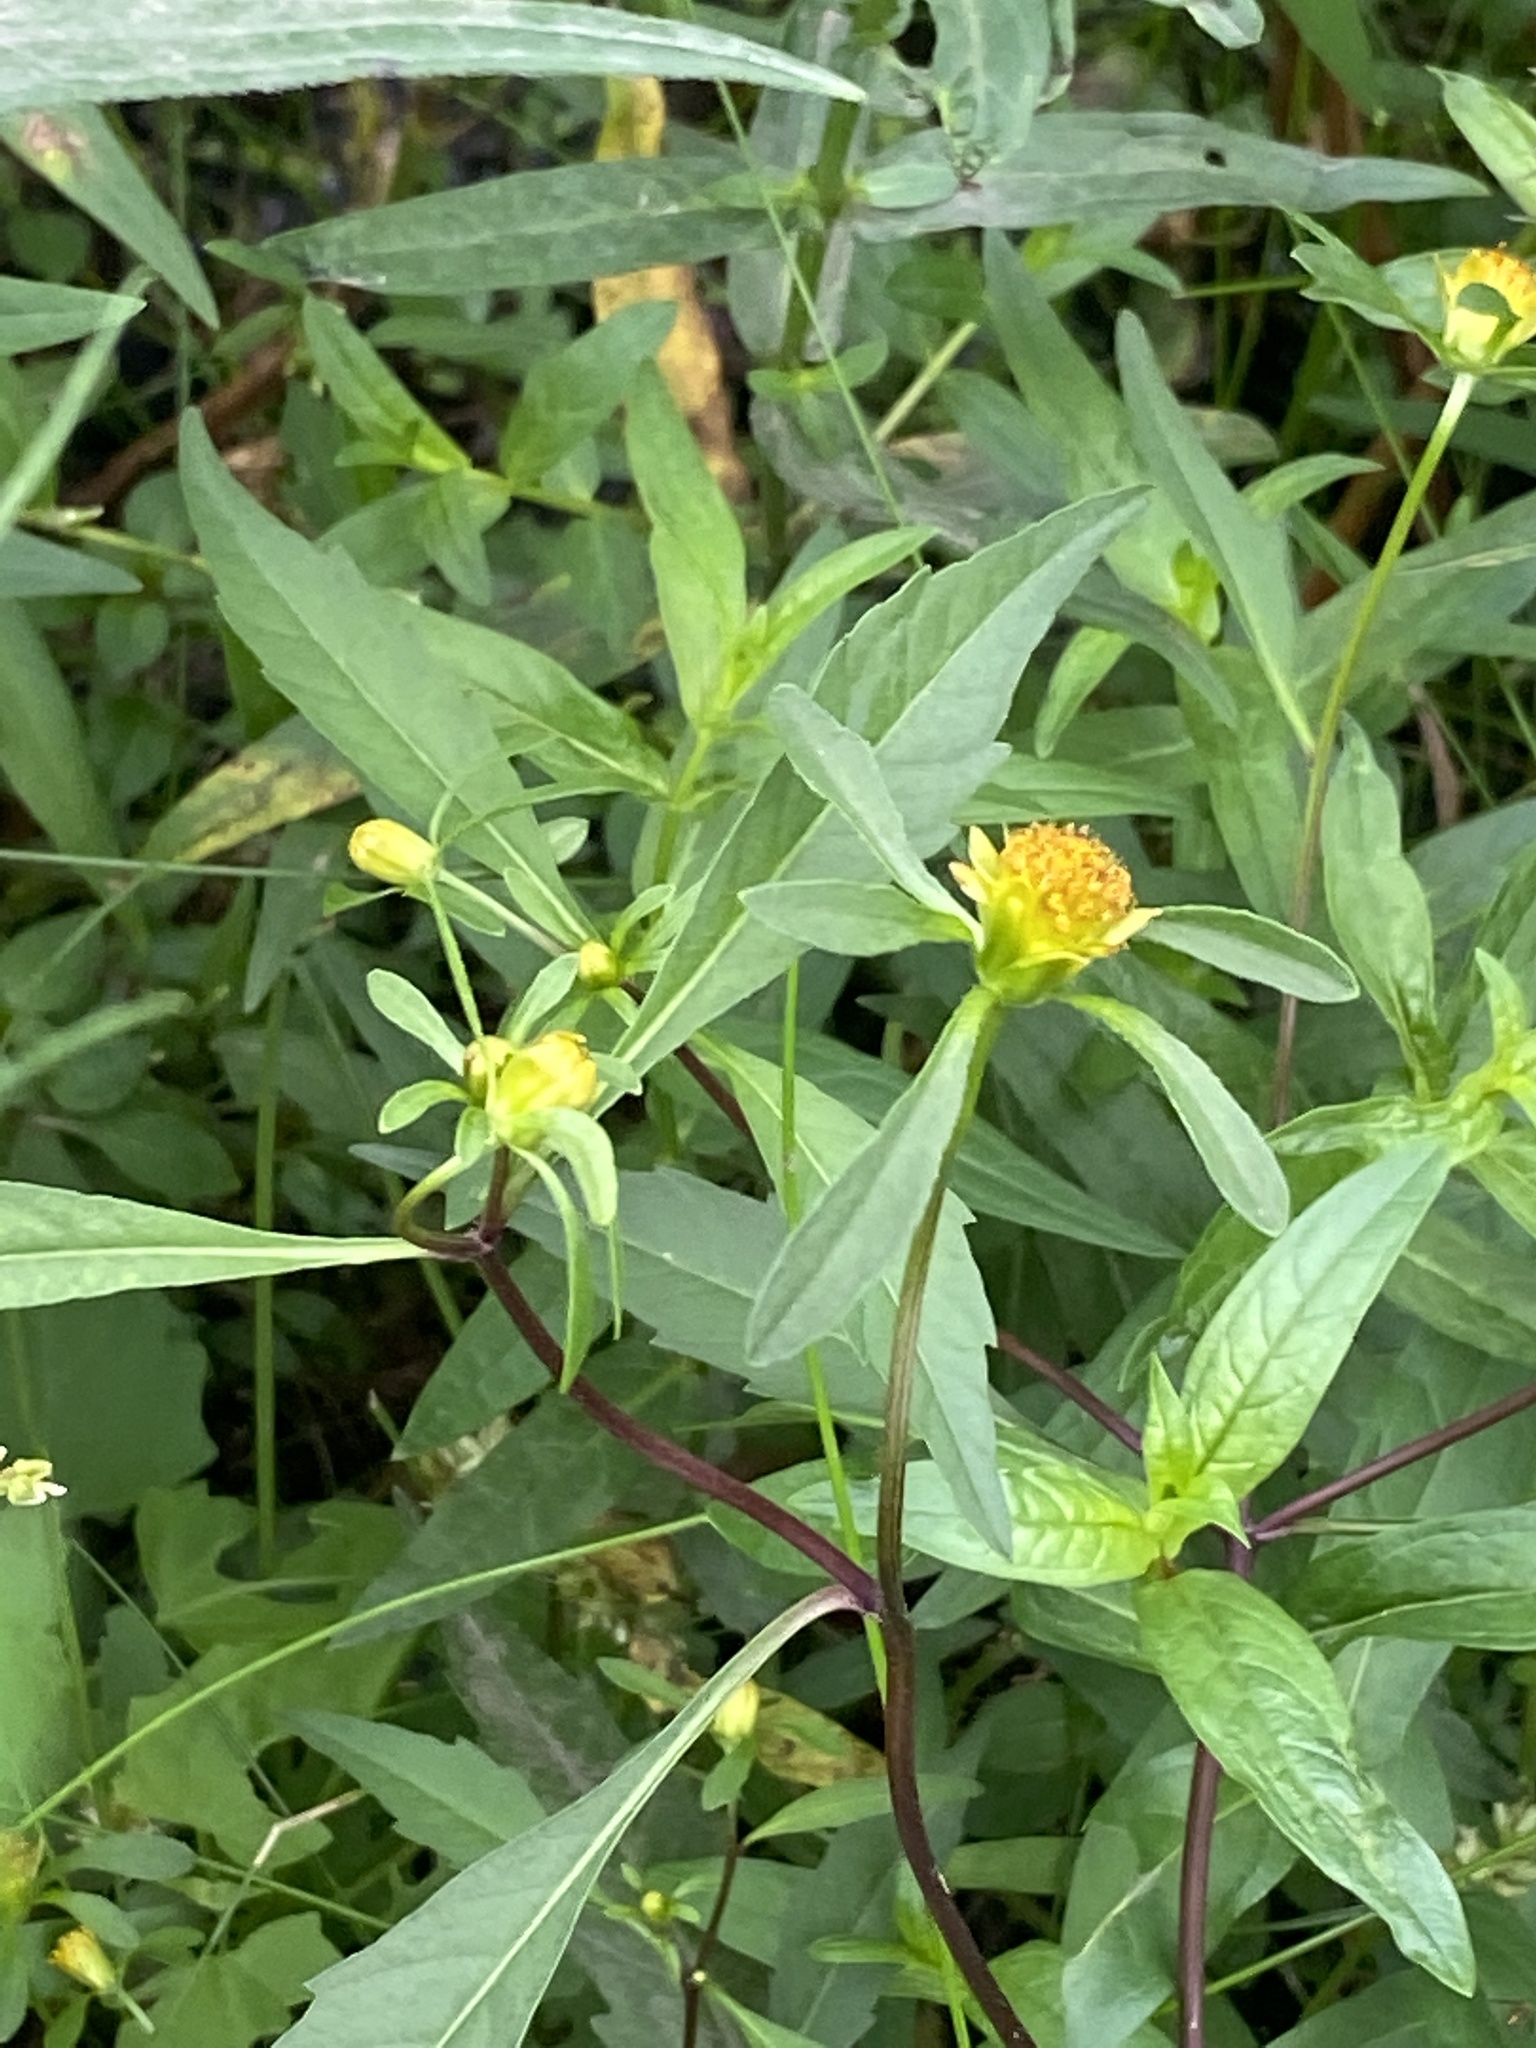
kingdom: Plantae
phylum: Tracheophyta
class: Magnoliopsida
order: Asterales
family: Asteraceae
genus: Bidens
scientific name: Bidens connata
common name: London bur-marigold
